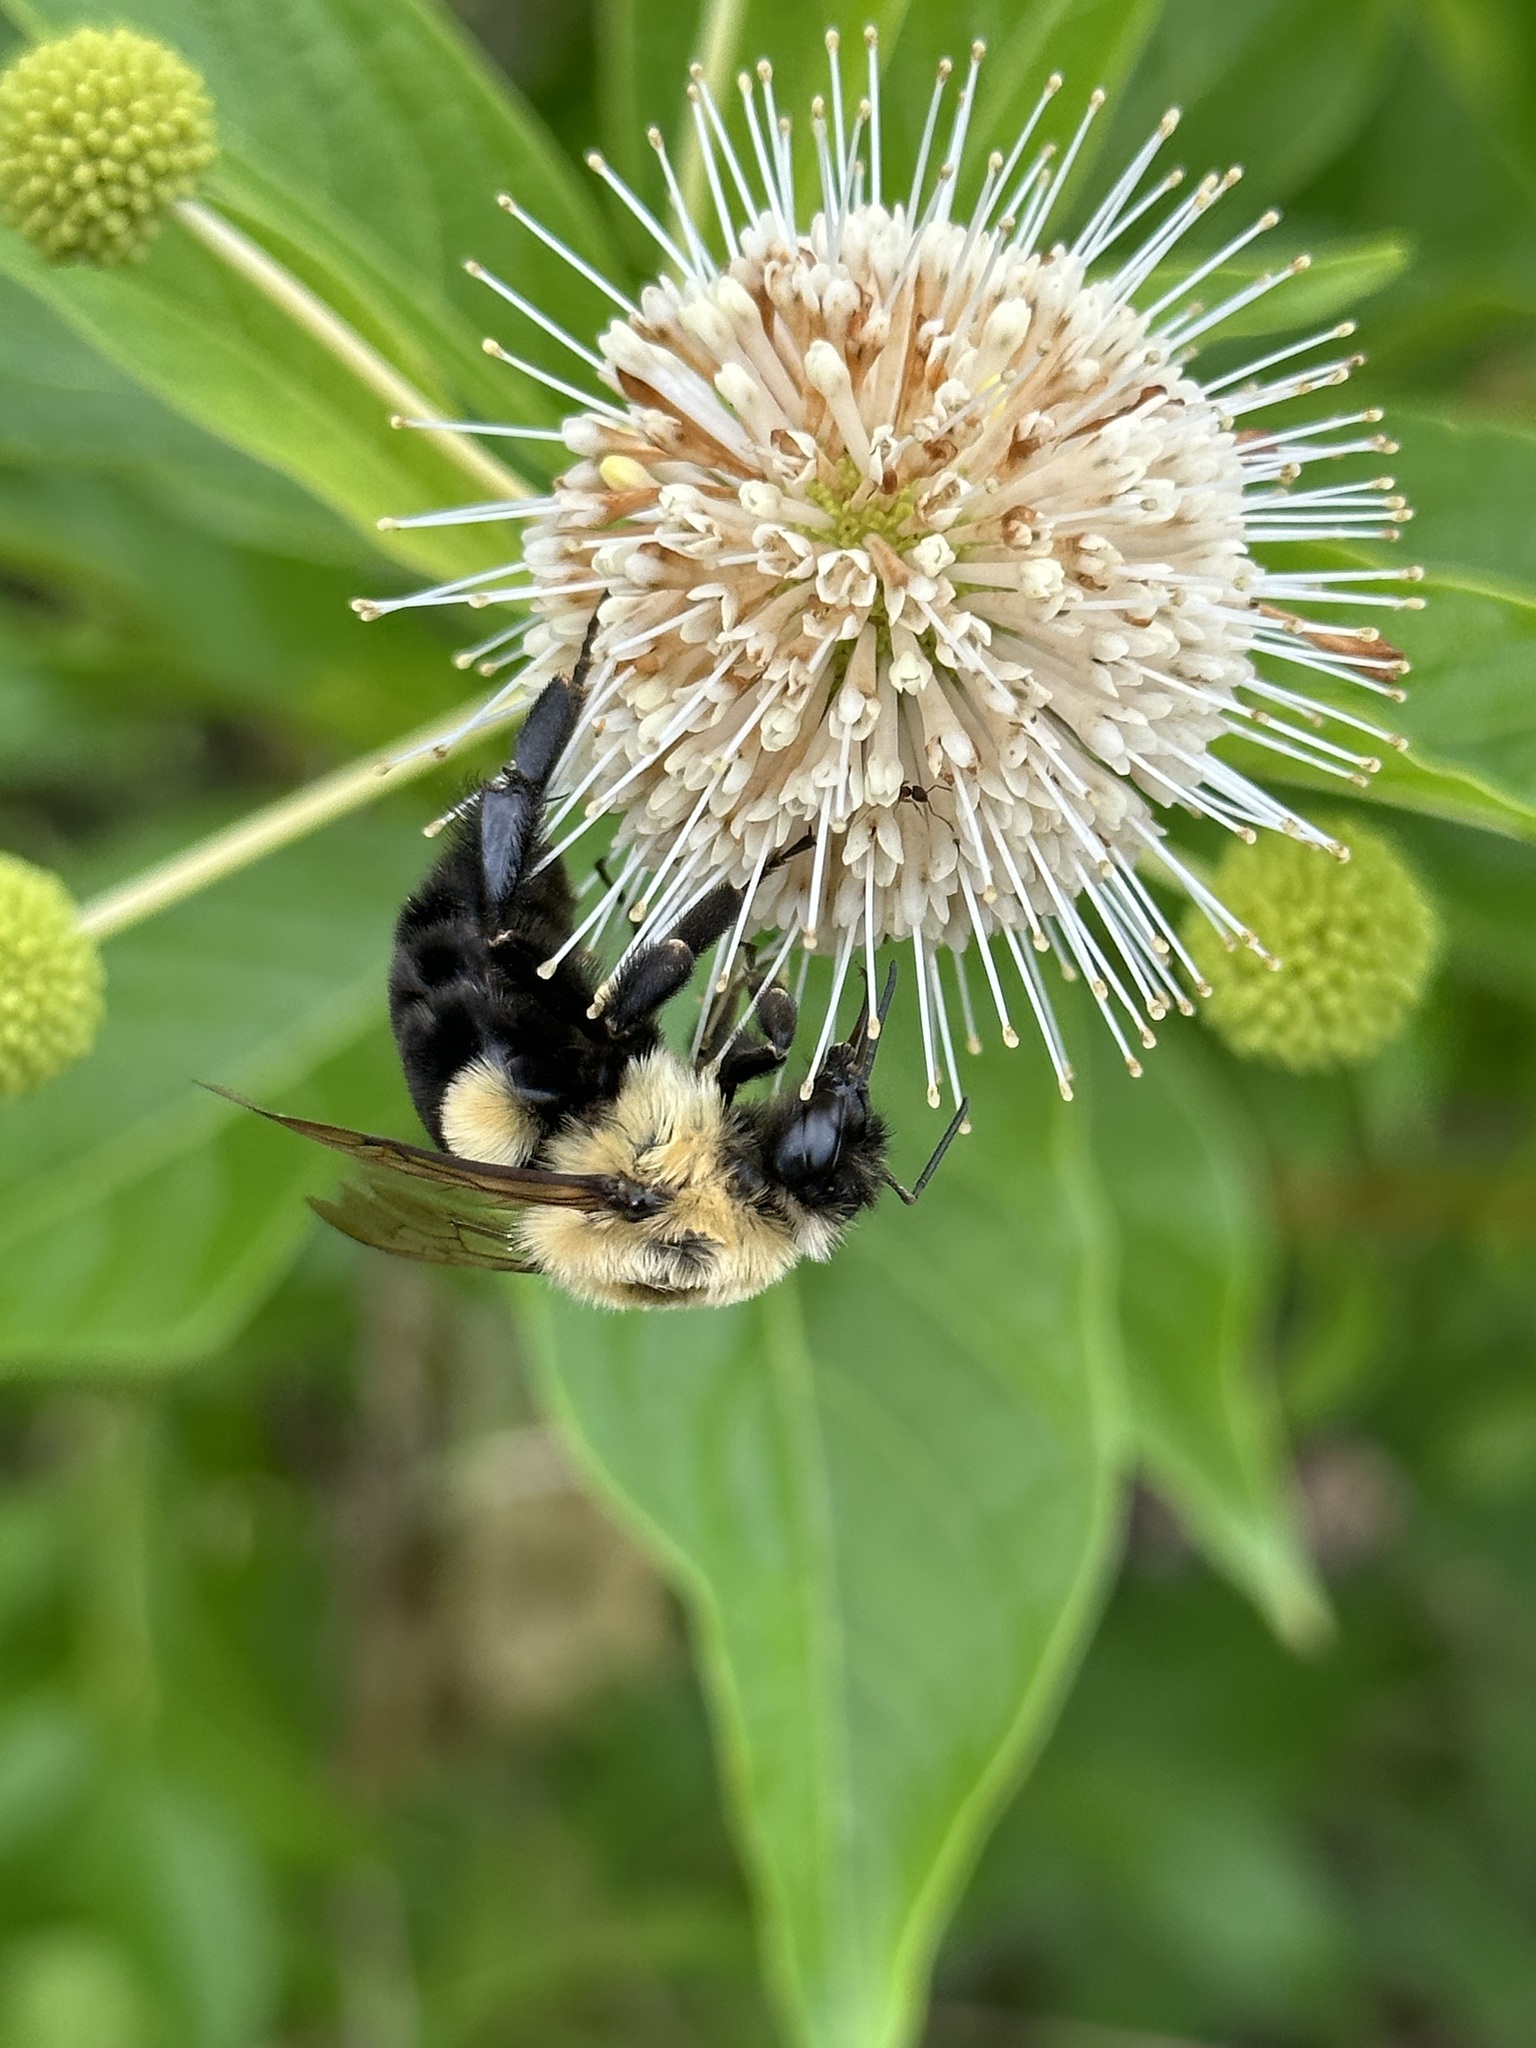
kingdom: Animalia
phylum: Arthropoda
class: Insecta
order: Hymenoptera
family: Apidae
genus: Bombus
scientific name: Bombus impatiens
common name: Common eastern bumble bee
